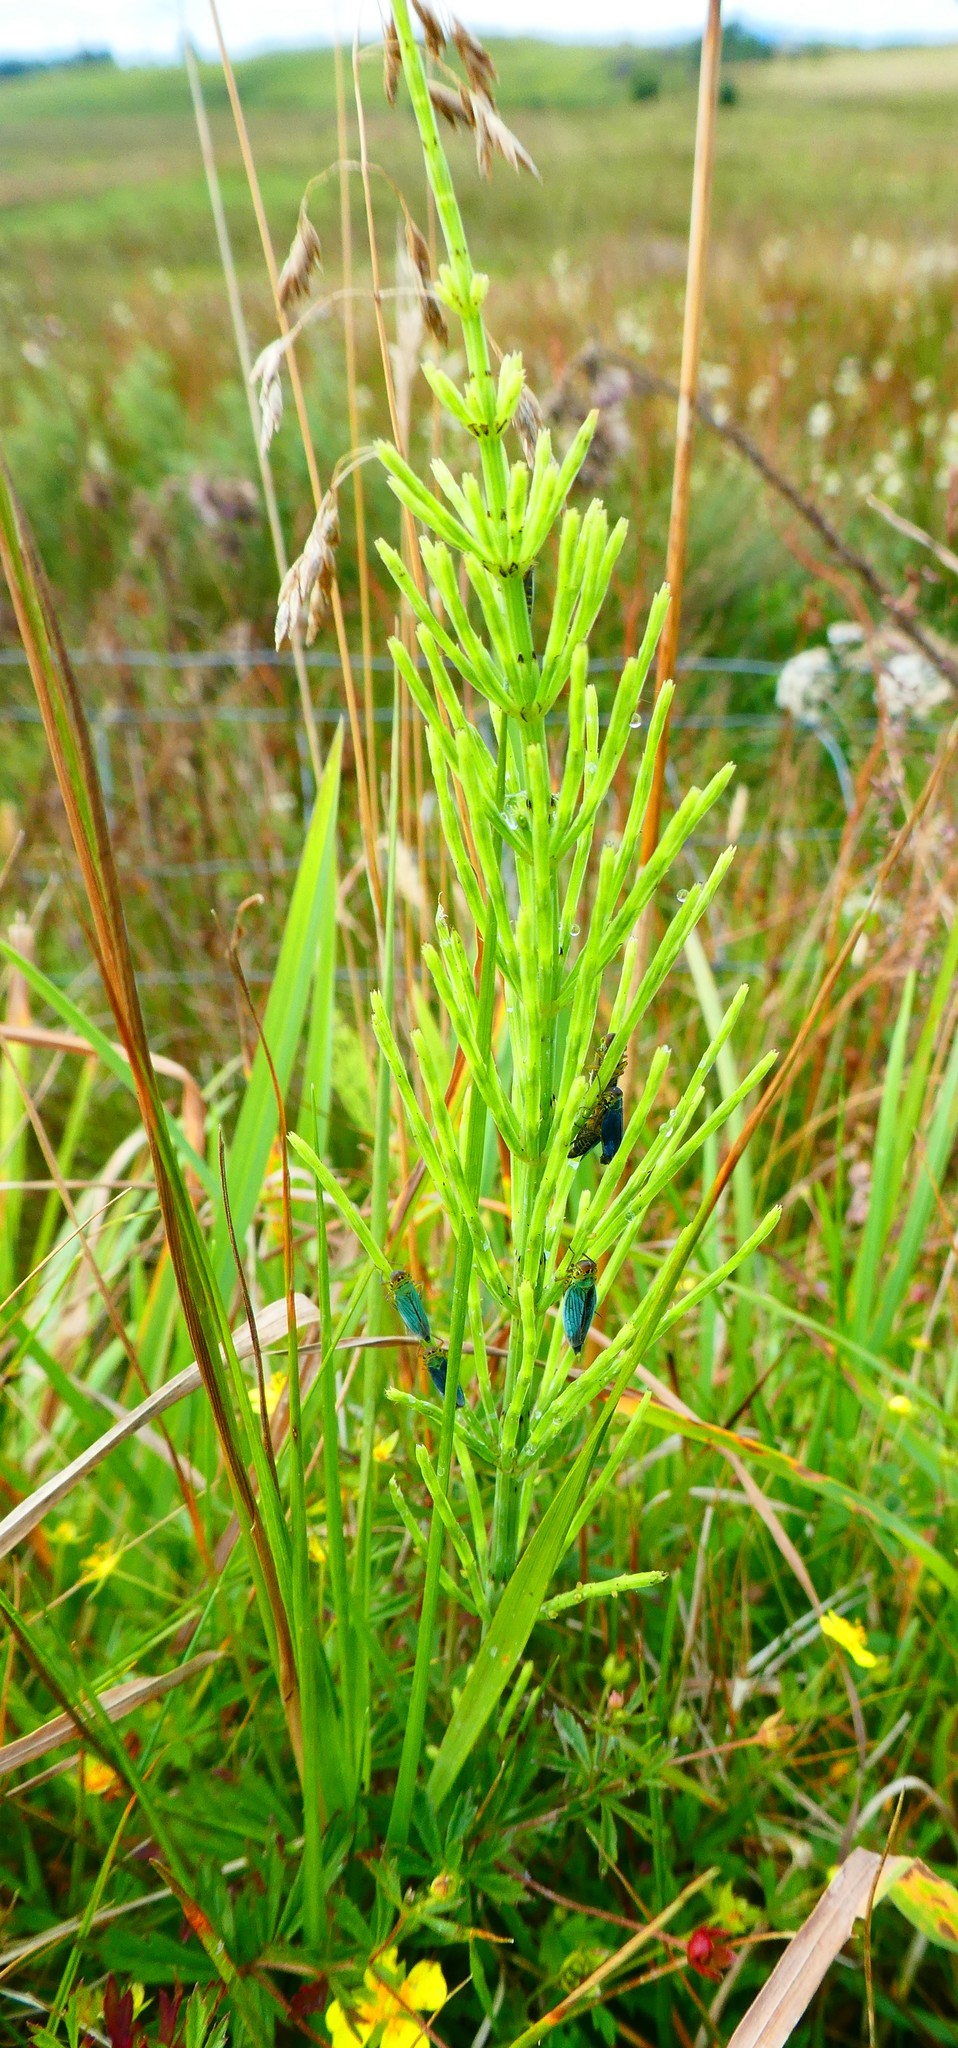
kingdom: Plantae
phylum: Tracheophyta
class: Polypodiopsida
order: Equisetales
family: Equisetaceae
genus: Equisetum
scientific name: Equisetum palustre
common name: Marsh horsetail
